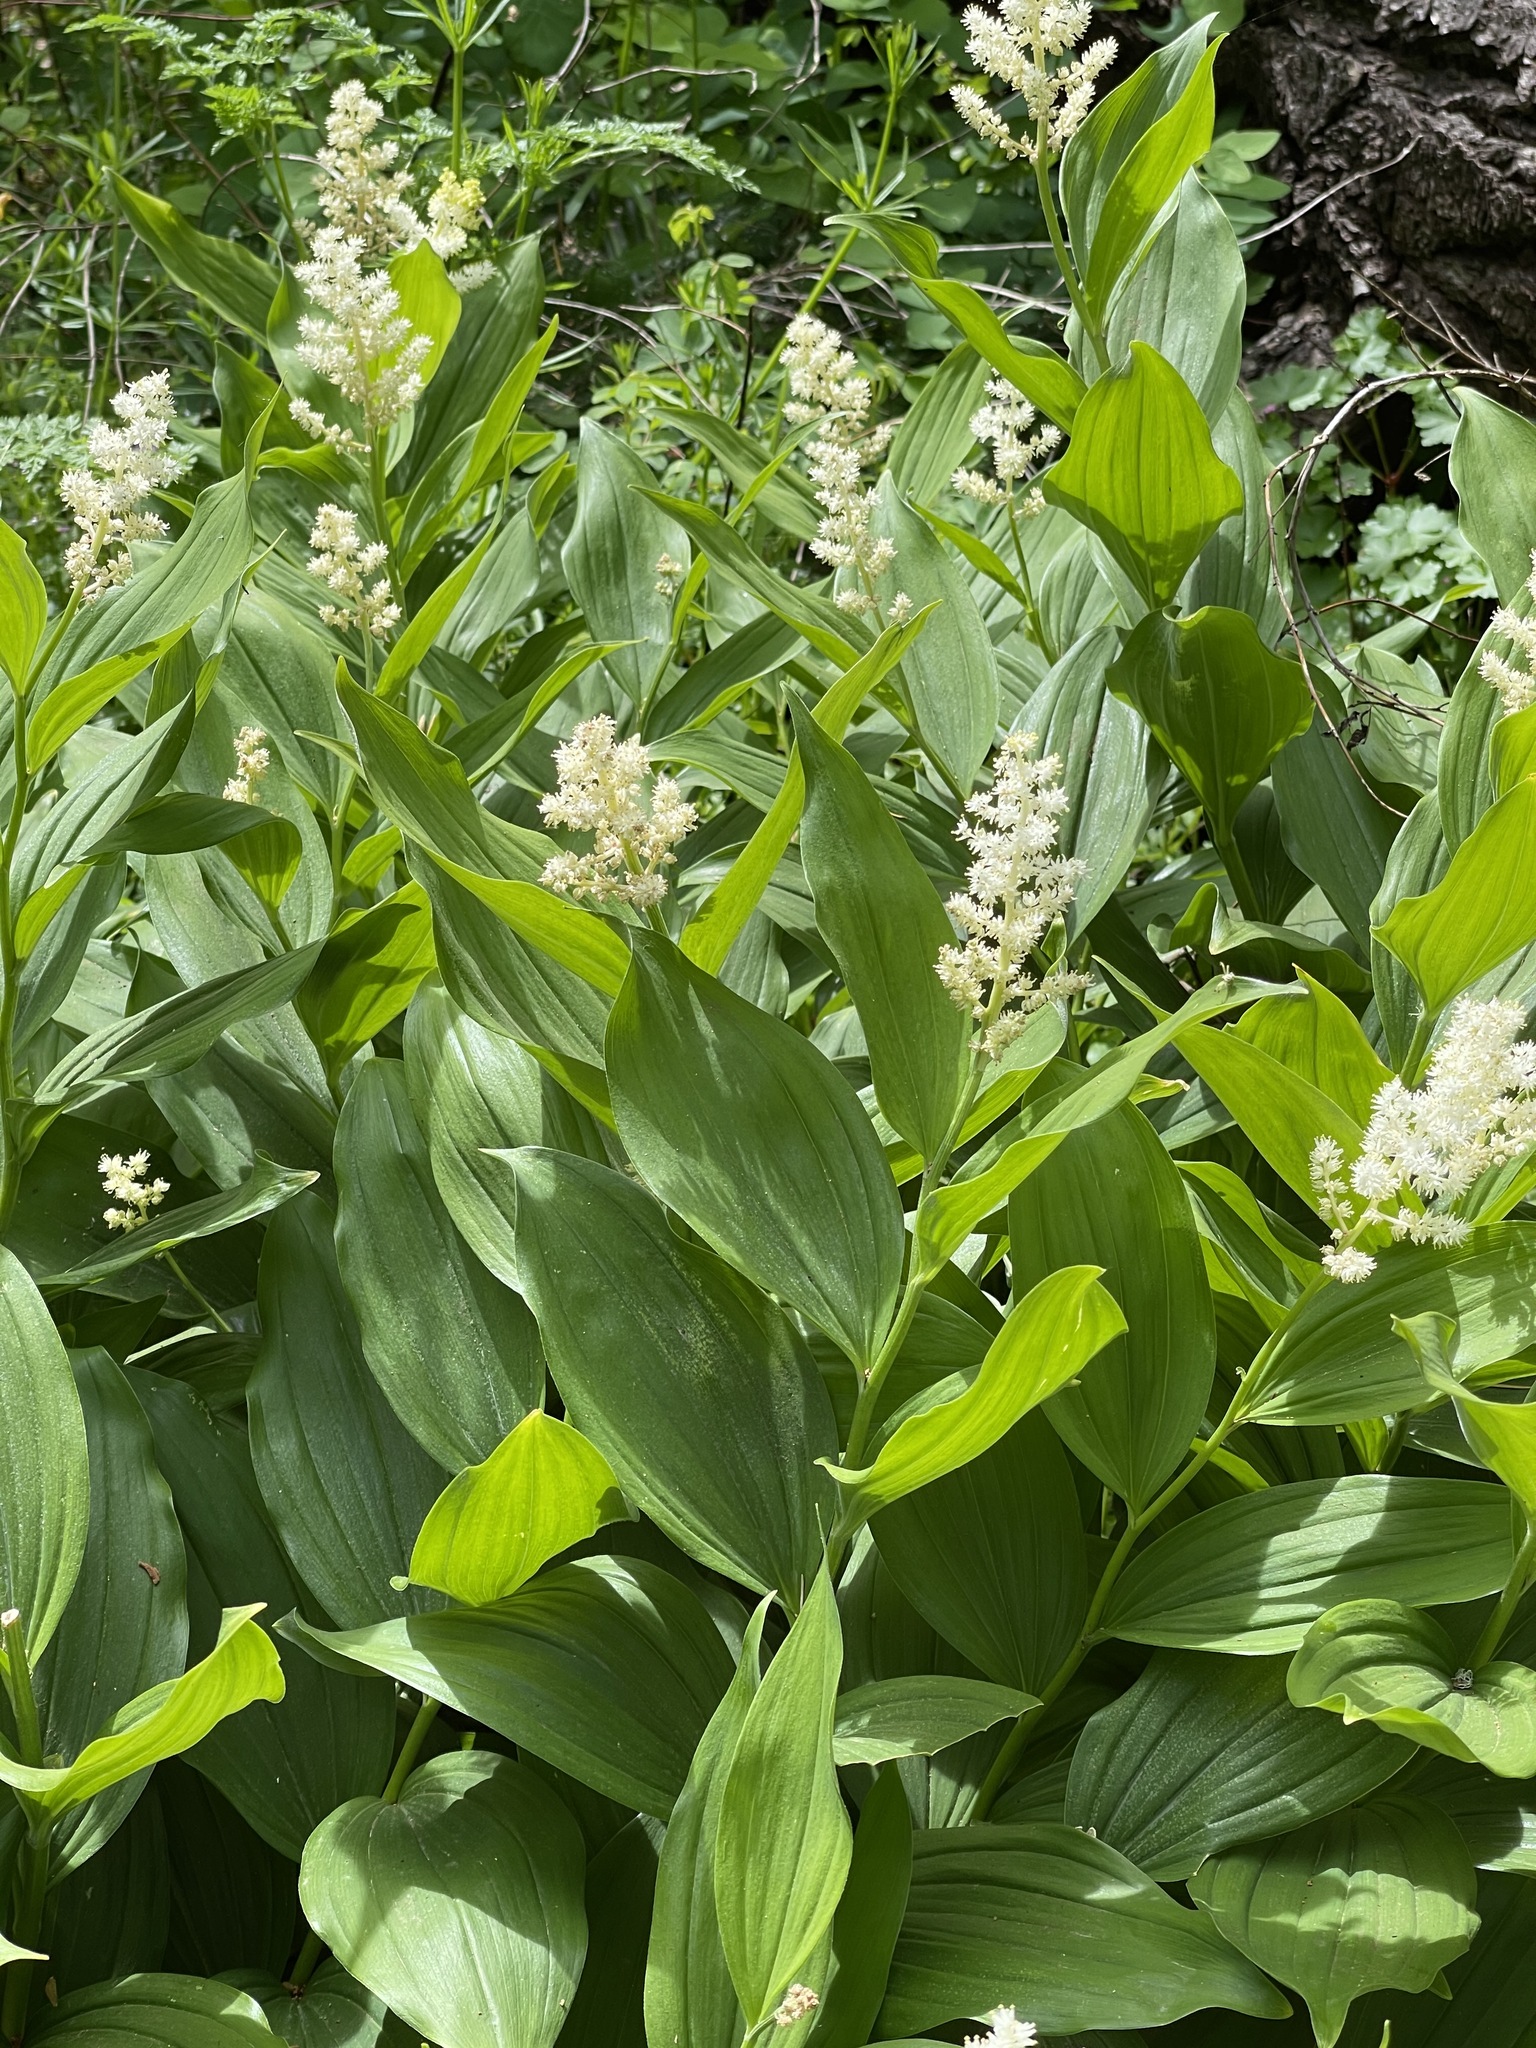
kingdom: Plantae
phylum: Tracheophyta
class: Liliopsida
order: Asparagales
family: Asparagaceae
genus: Maianthemum
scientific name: Maianthemum racemosum
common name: False spikenard
